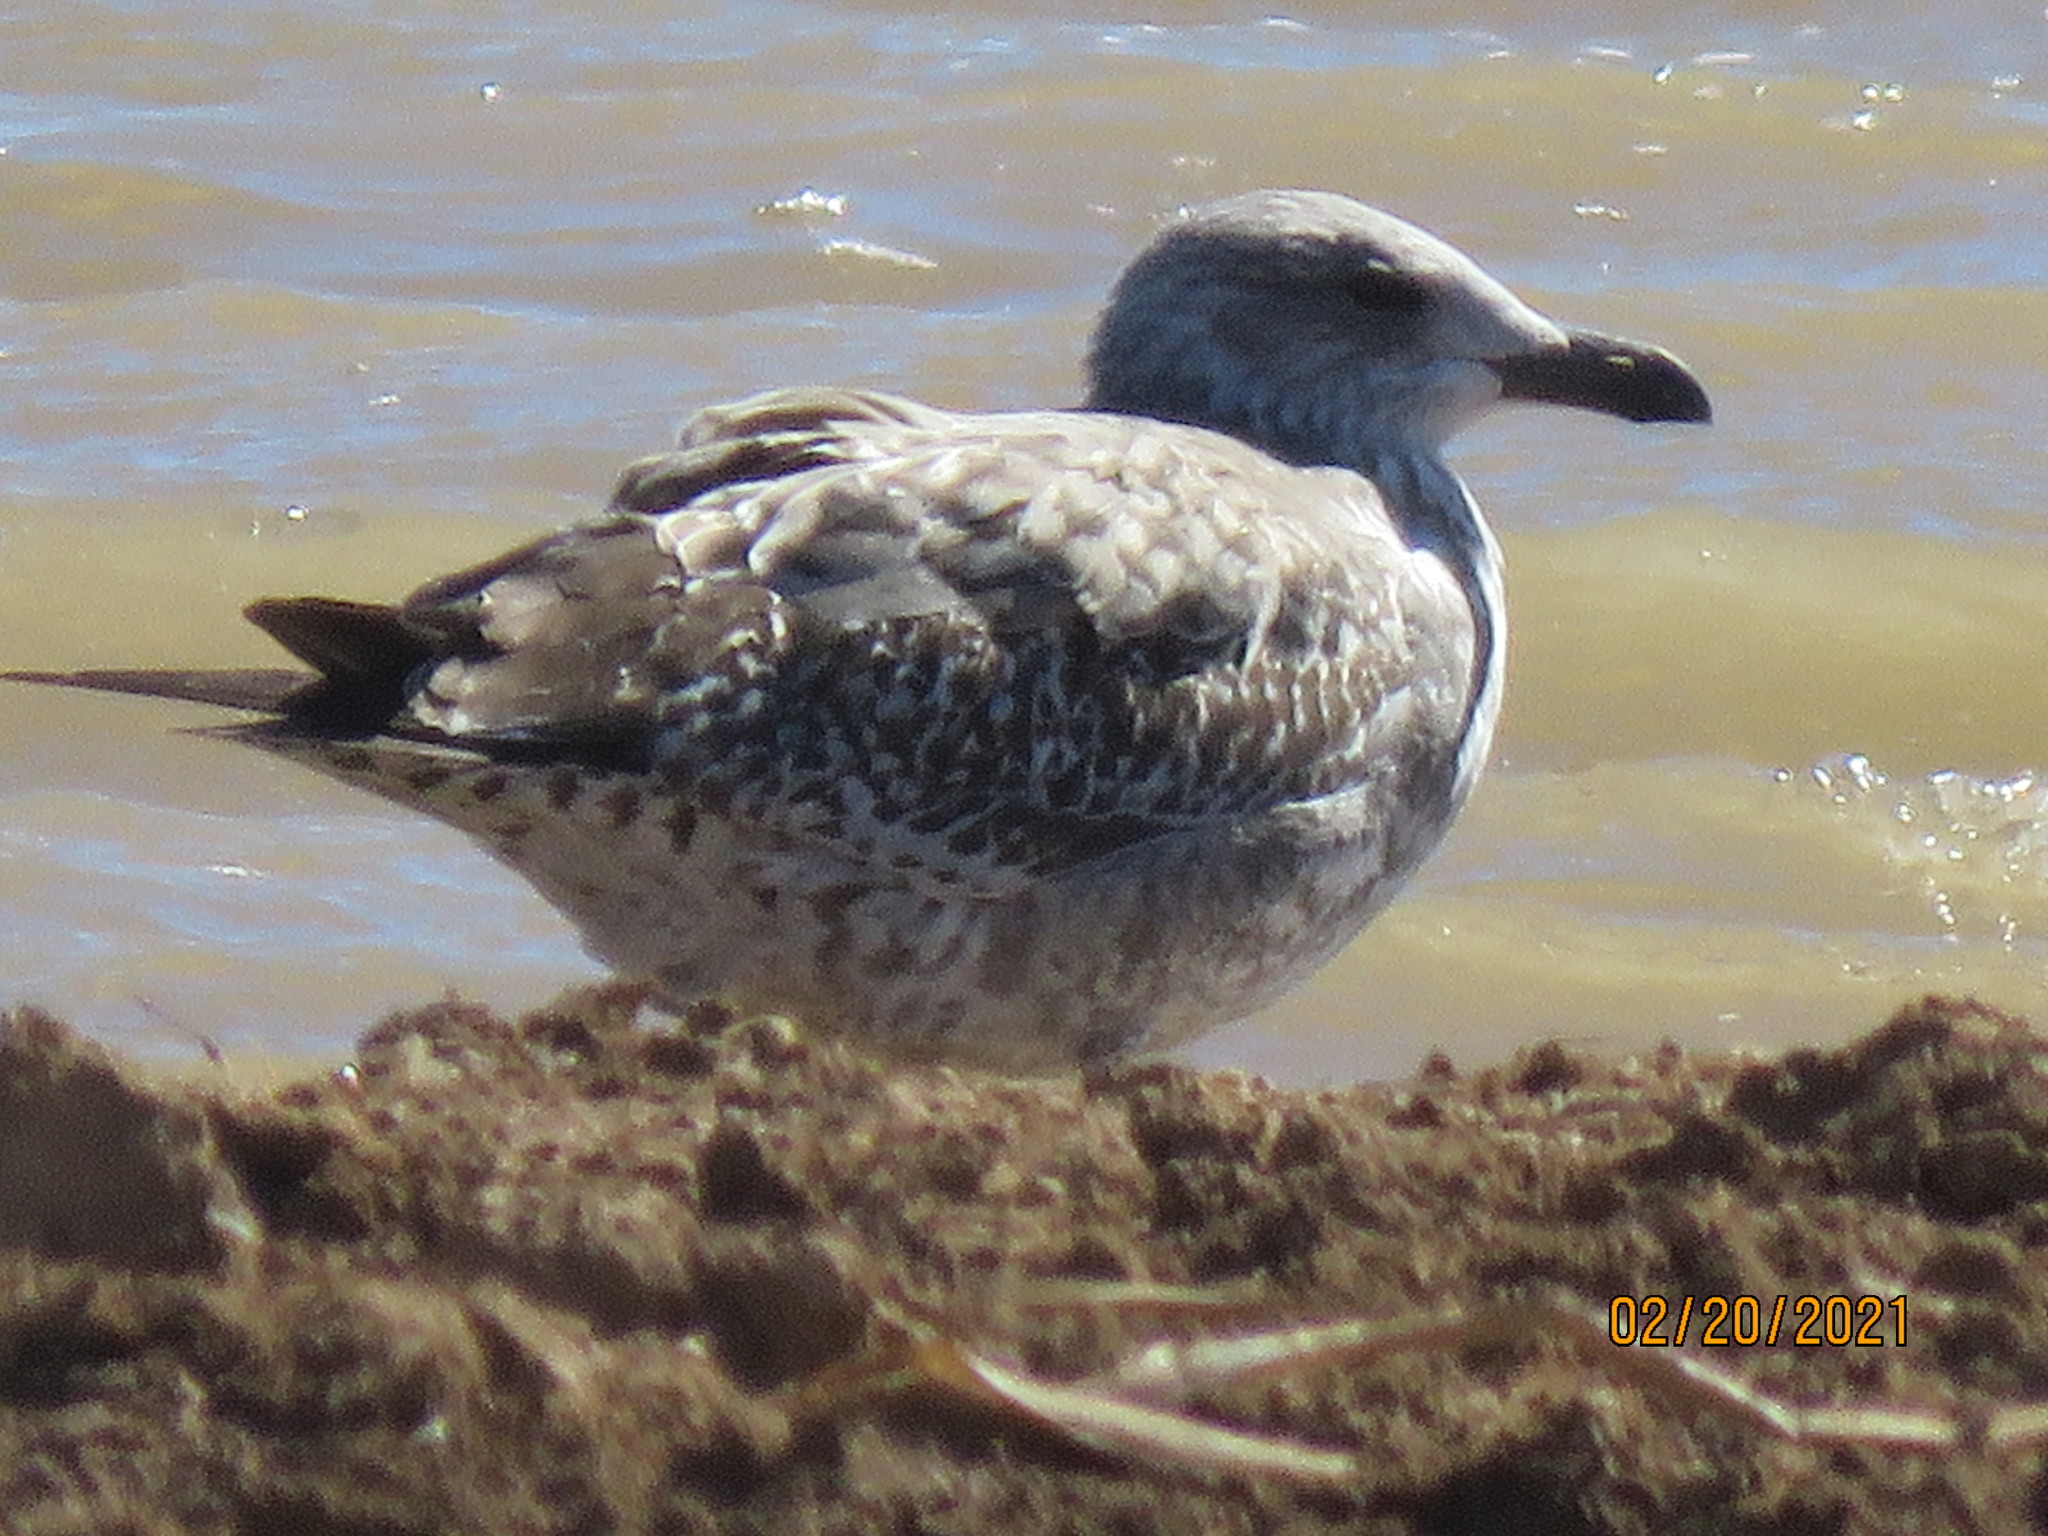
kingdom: Animalia
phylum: Chordata
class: Aves
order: Charadriiformes
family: Laridae
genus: Larus
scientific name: Larus fuscus
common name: Lesser black-backed gull
